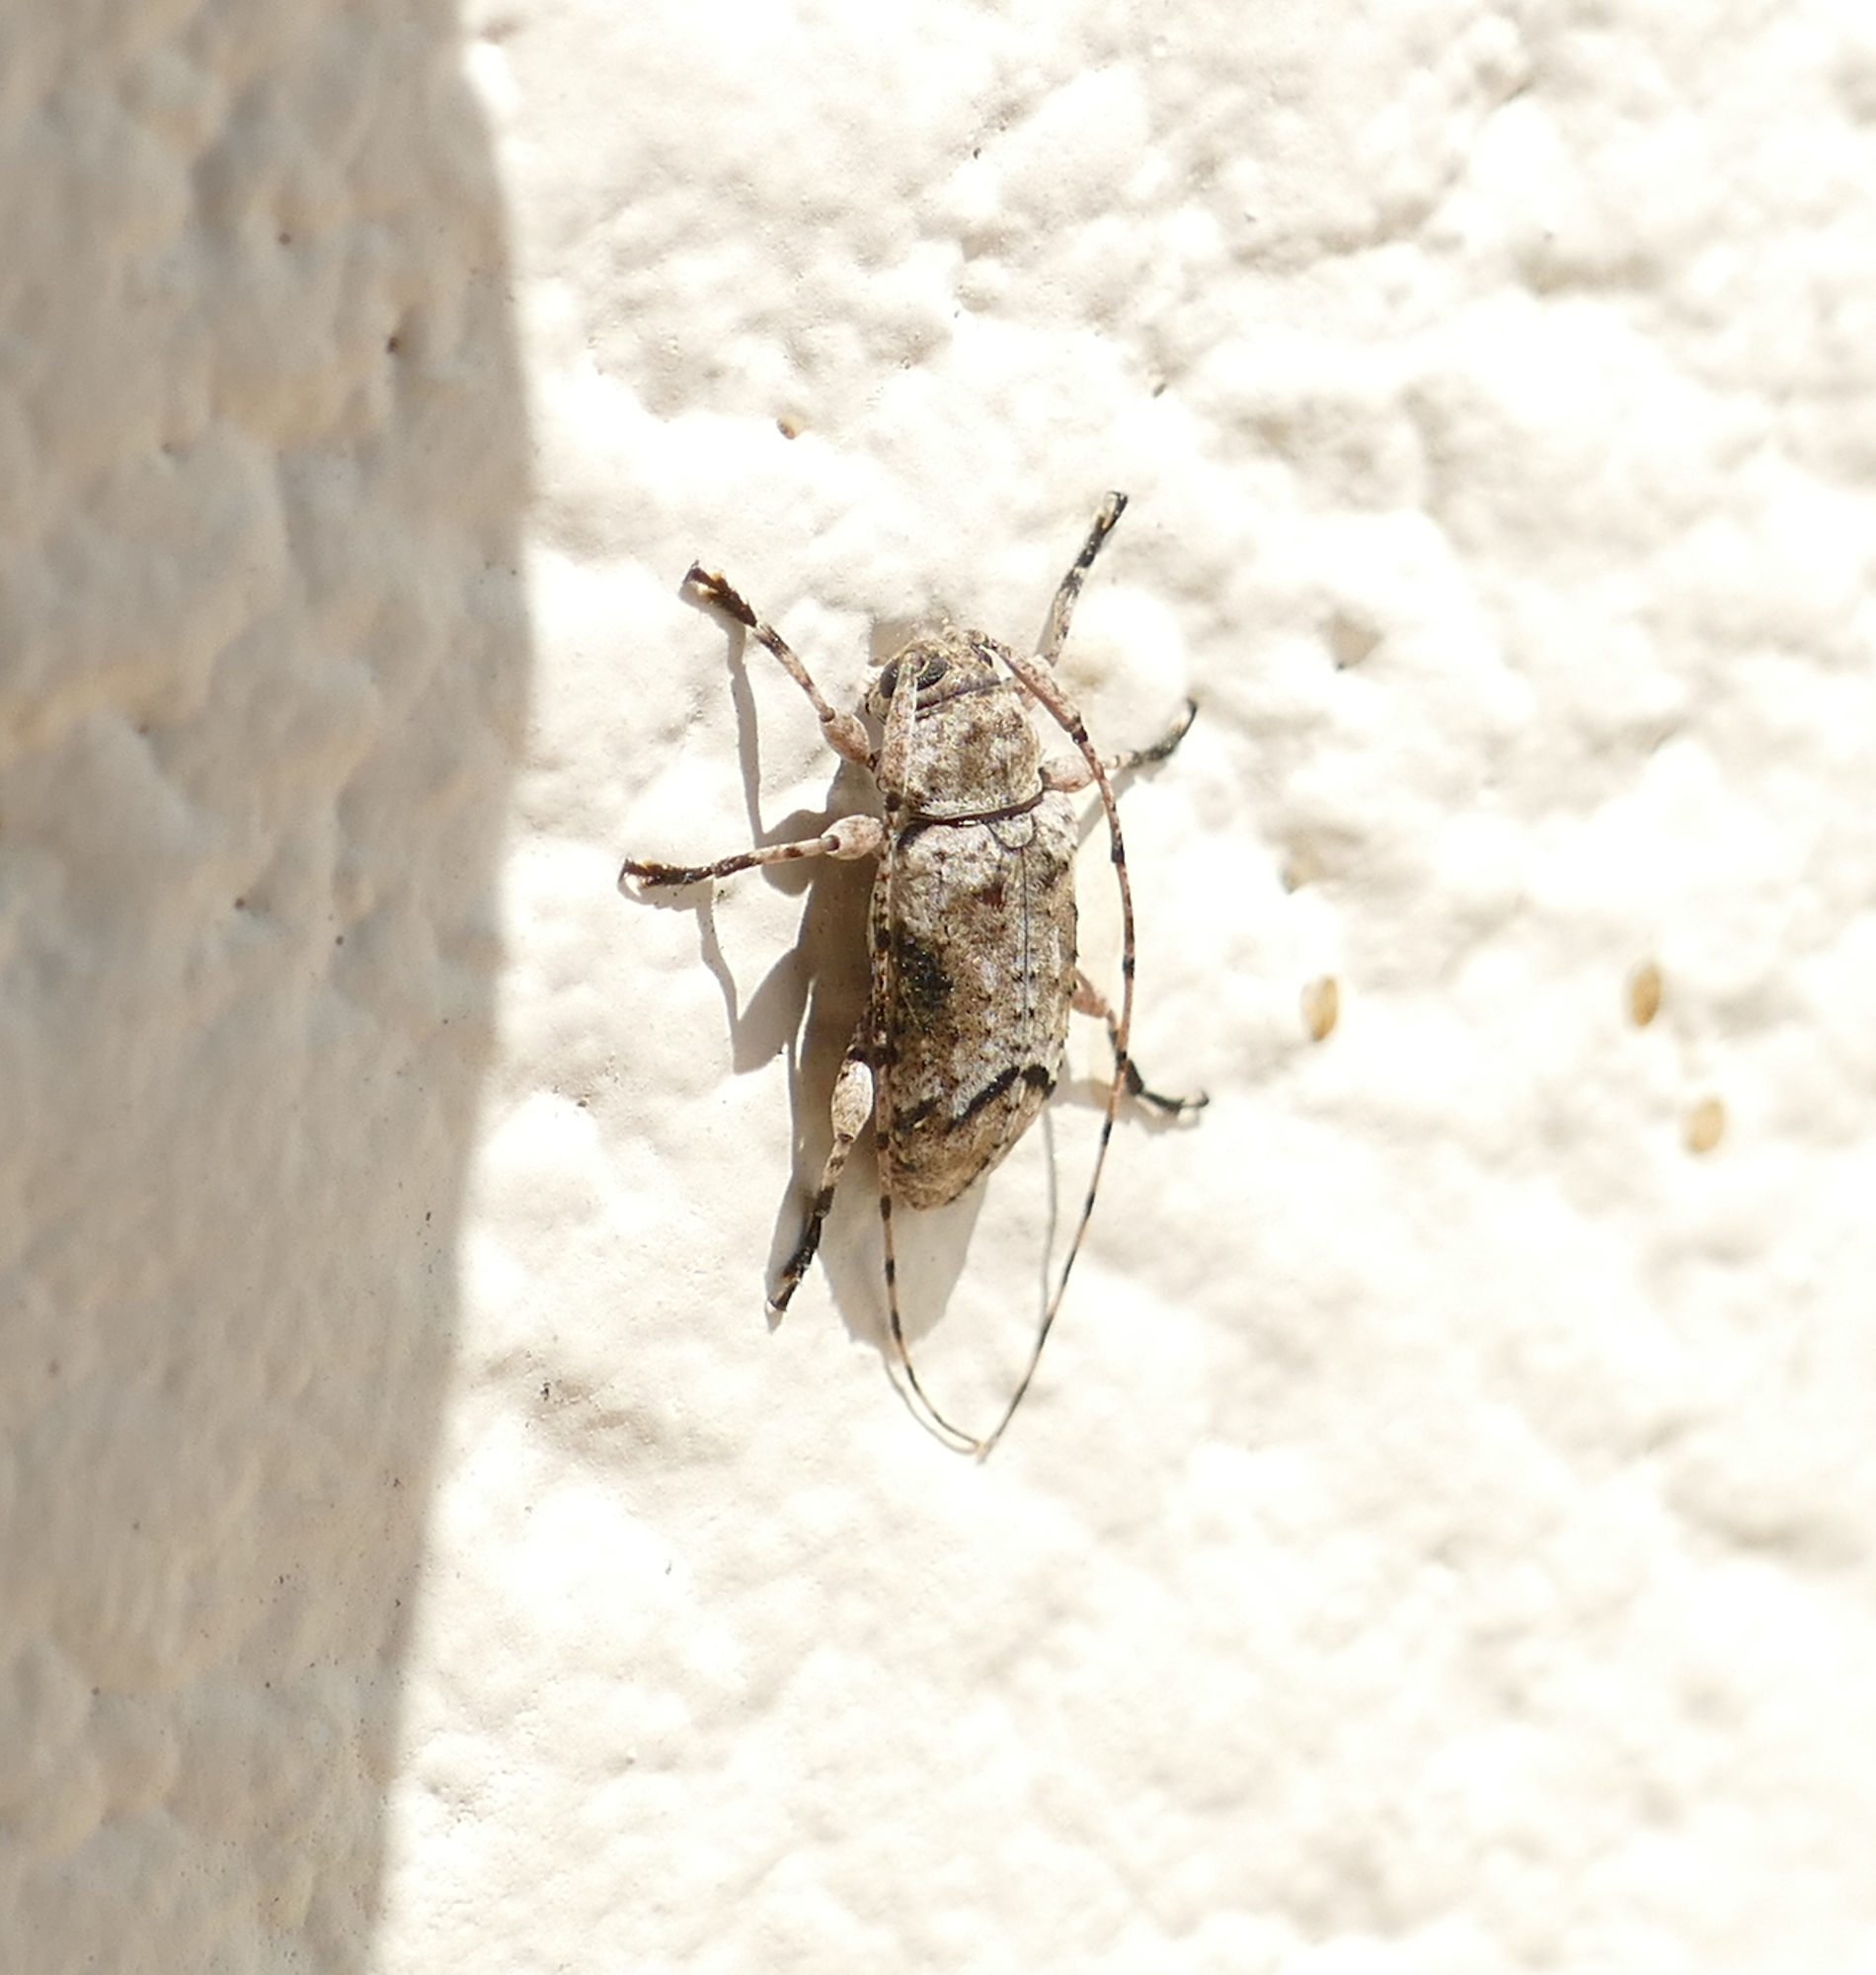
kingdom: Animalia
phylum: Arthropoda
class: Insecta
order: Coleoptera
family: Cerambycidae
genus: Sternidius
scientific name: Sternidius mimeticus
